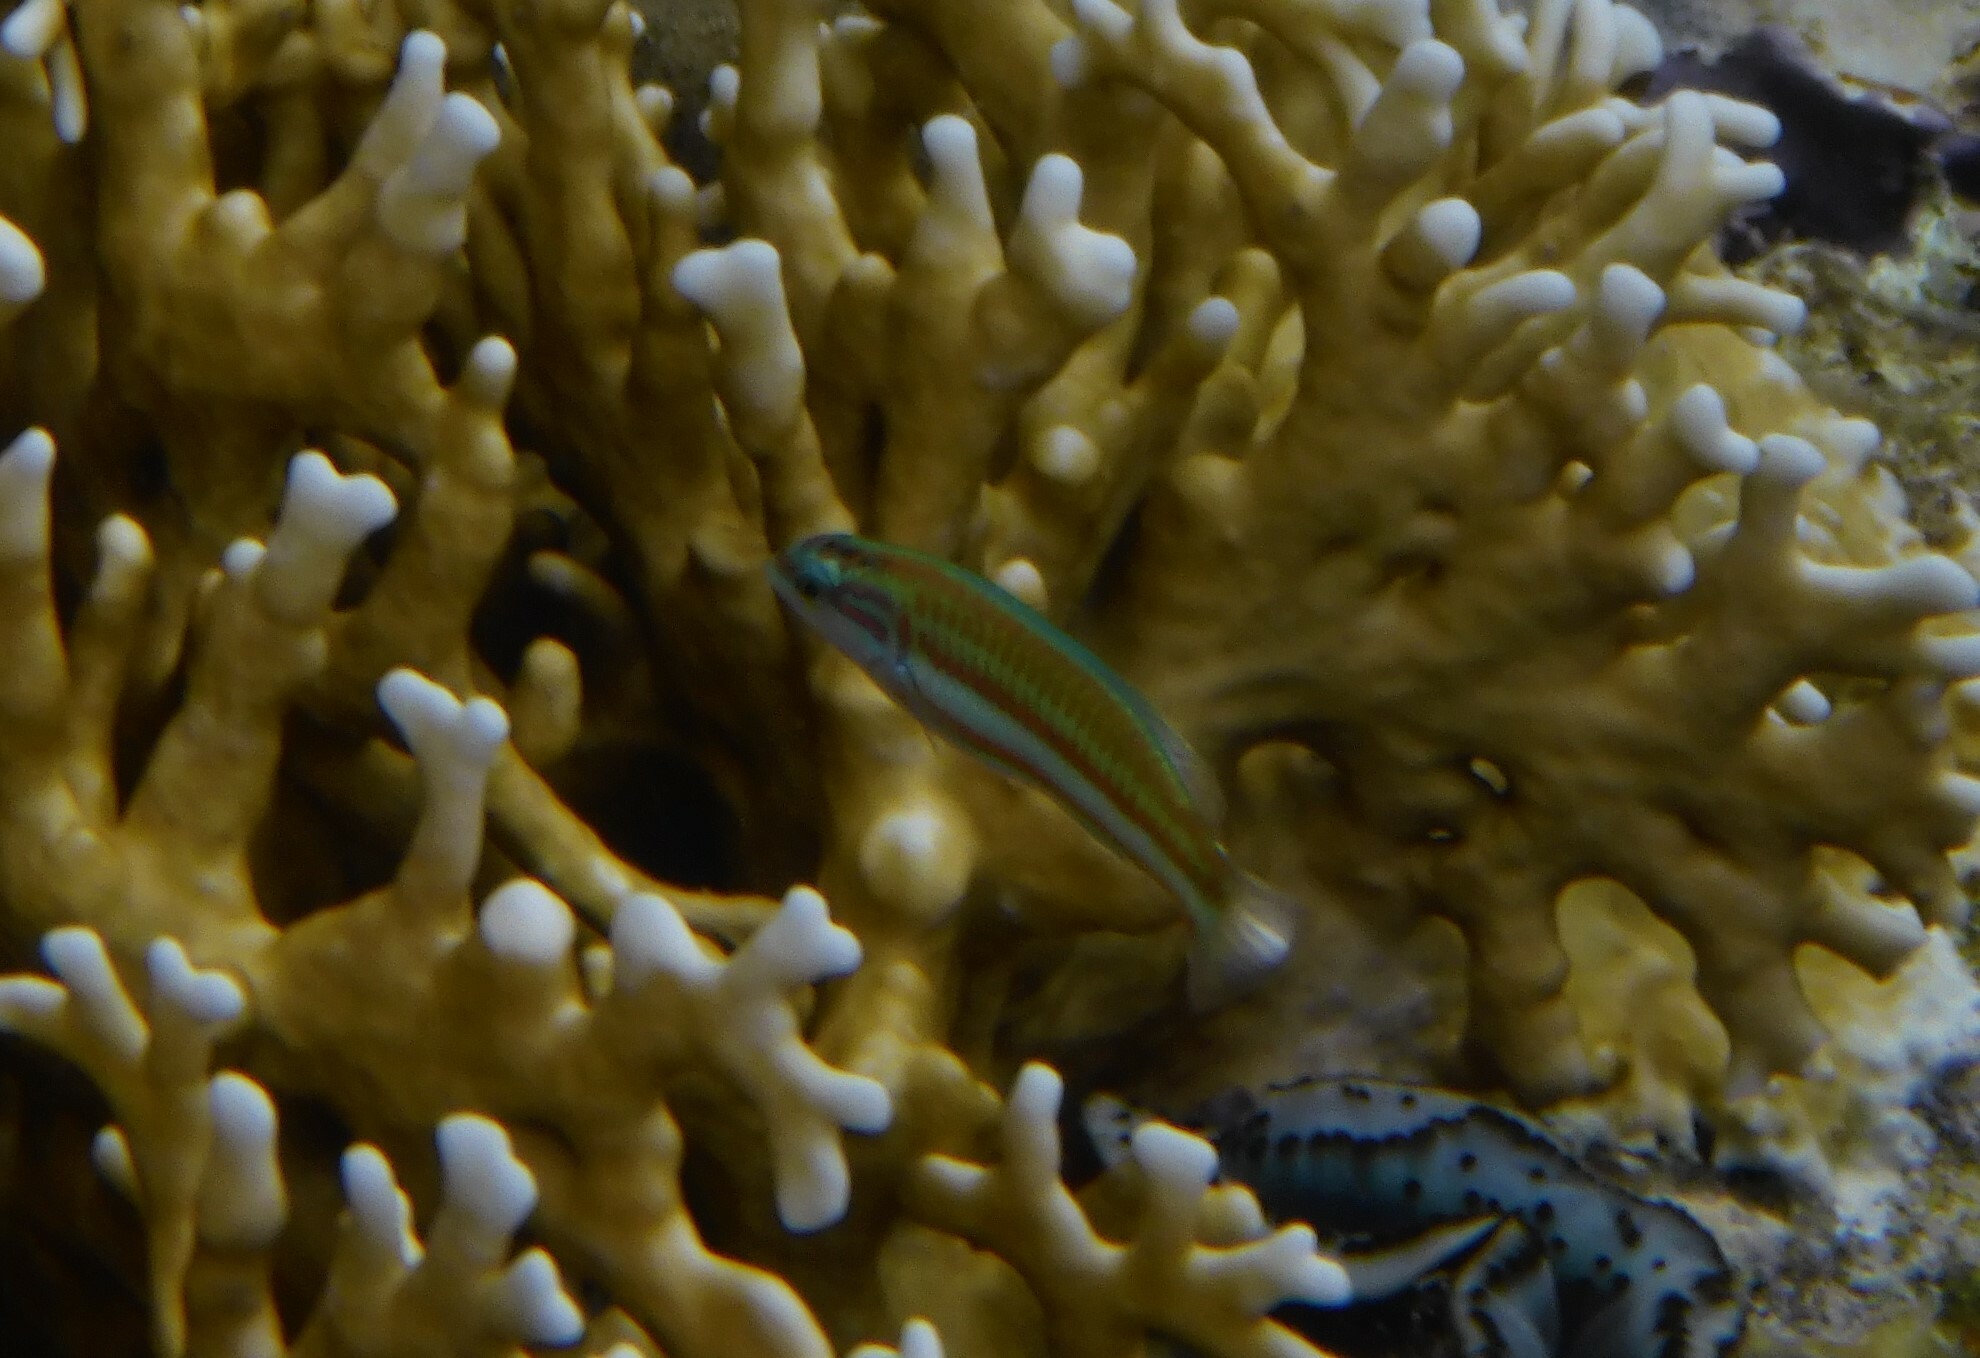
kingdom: Animalia
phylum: Chordata
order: Perciformes
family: Labridae
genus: Thalassoma
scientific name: Thalassoma rueppellii
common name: Klunzinger's wrasse
